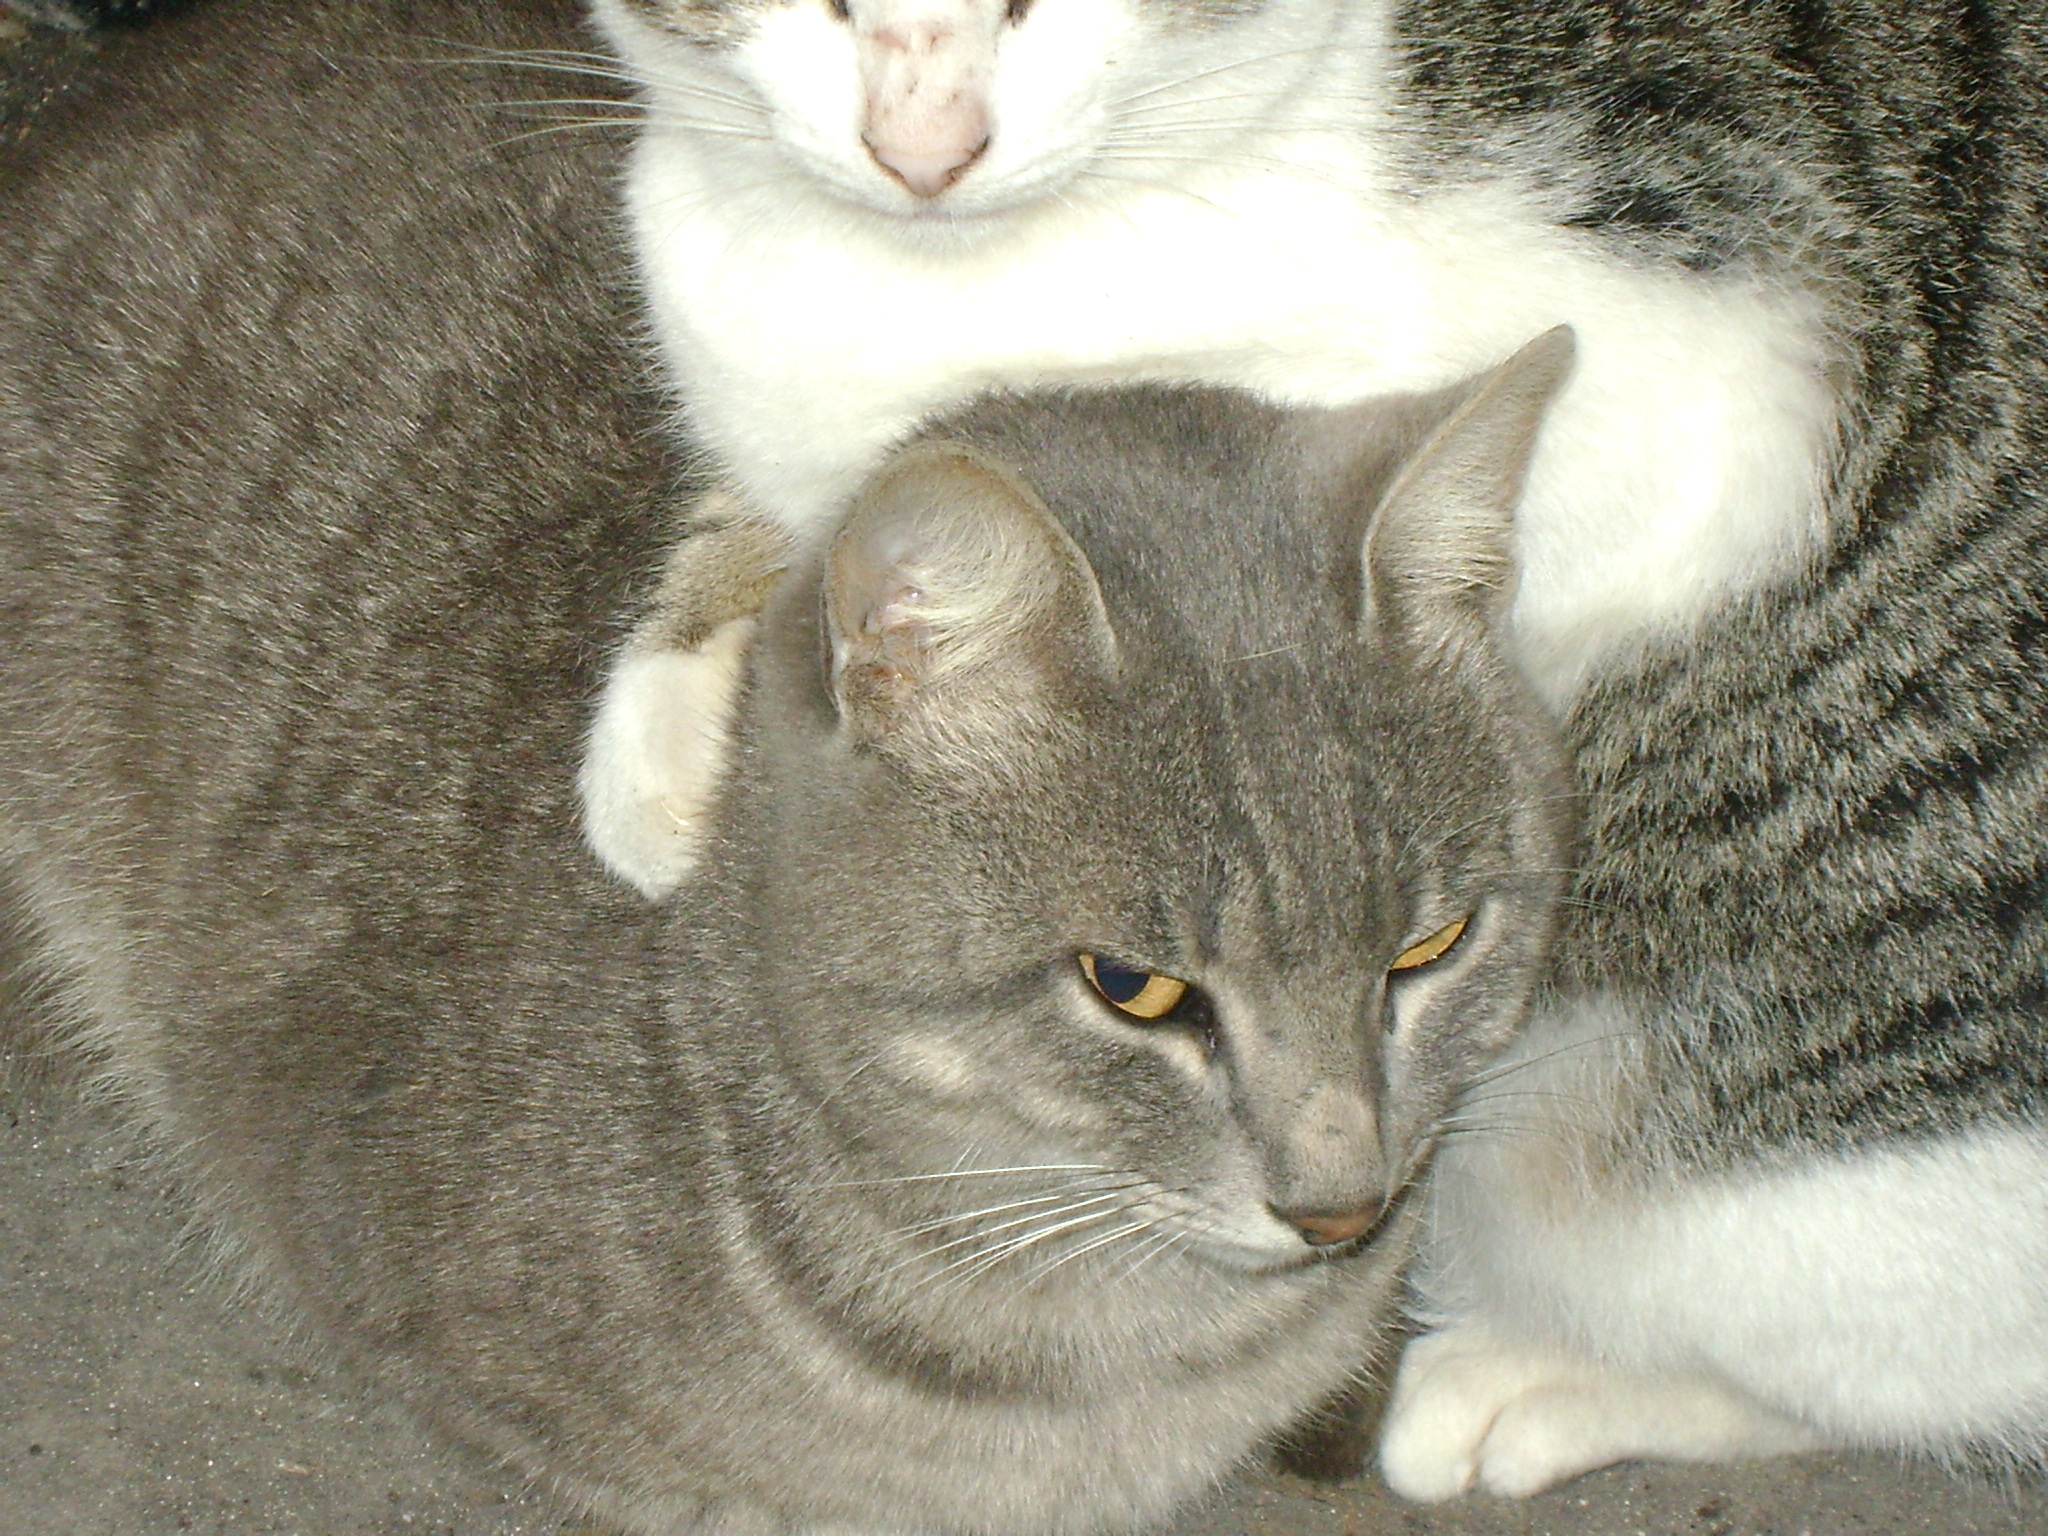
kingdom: Animalia
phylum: Chordata
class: Mammalia
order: Carnivora
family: Felidae
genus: Felis
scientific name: Felis catus
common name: Domestic cat
